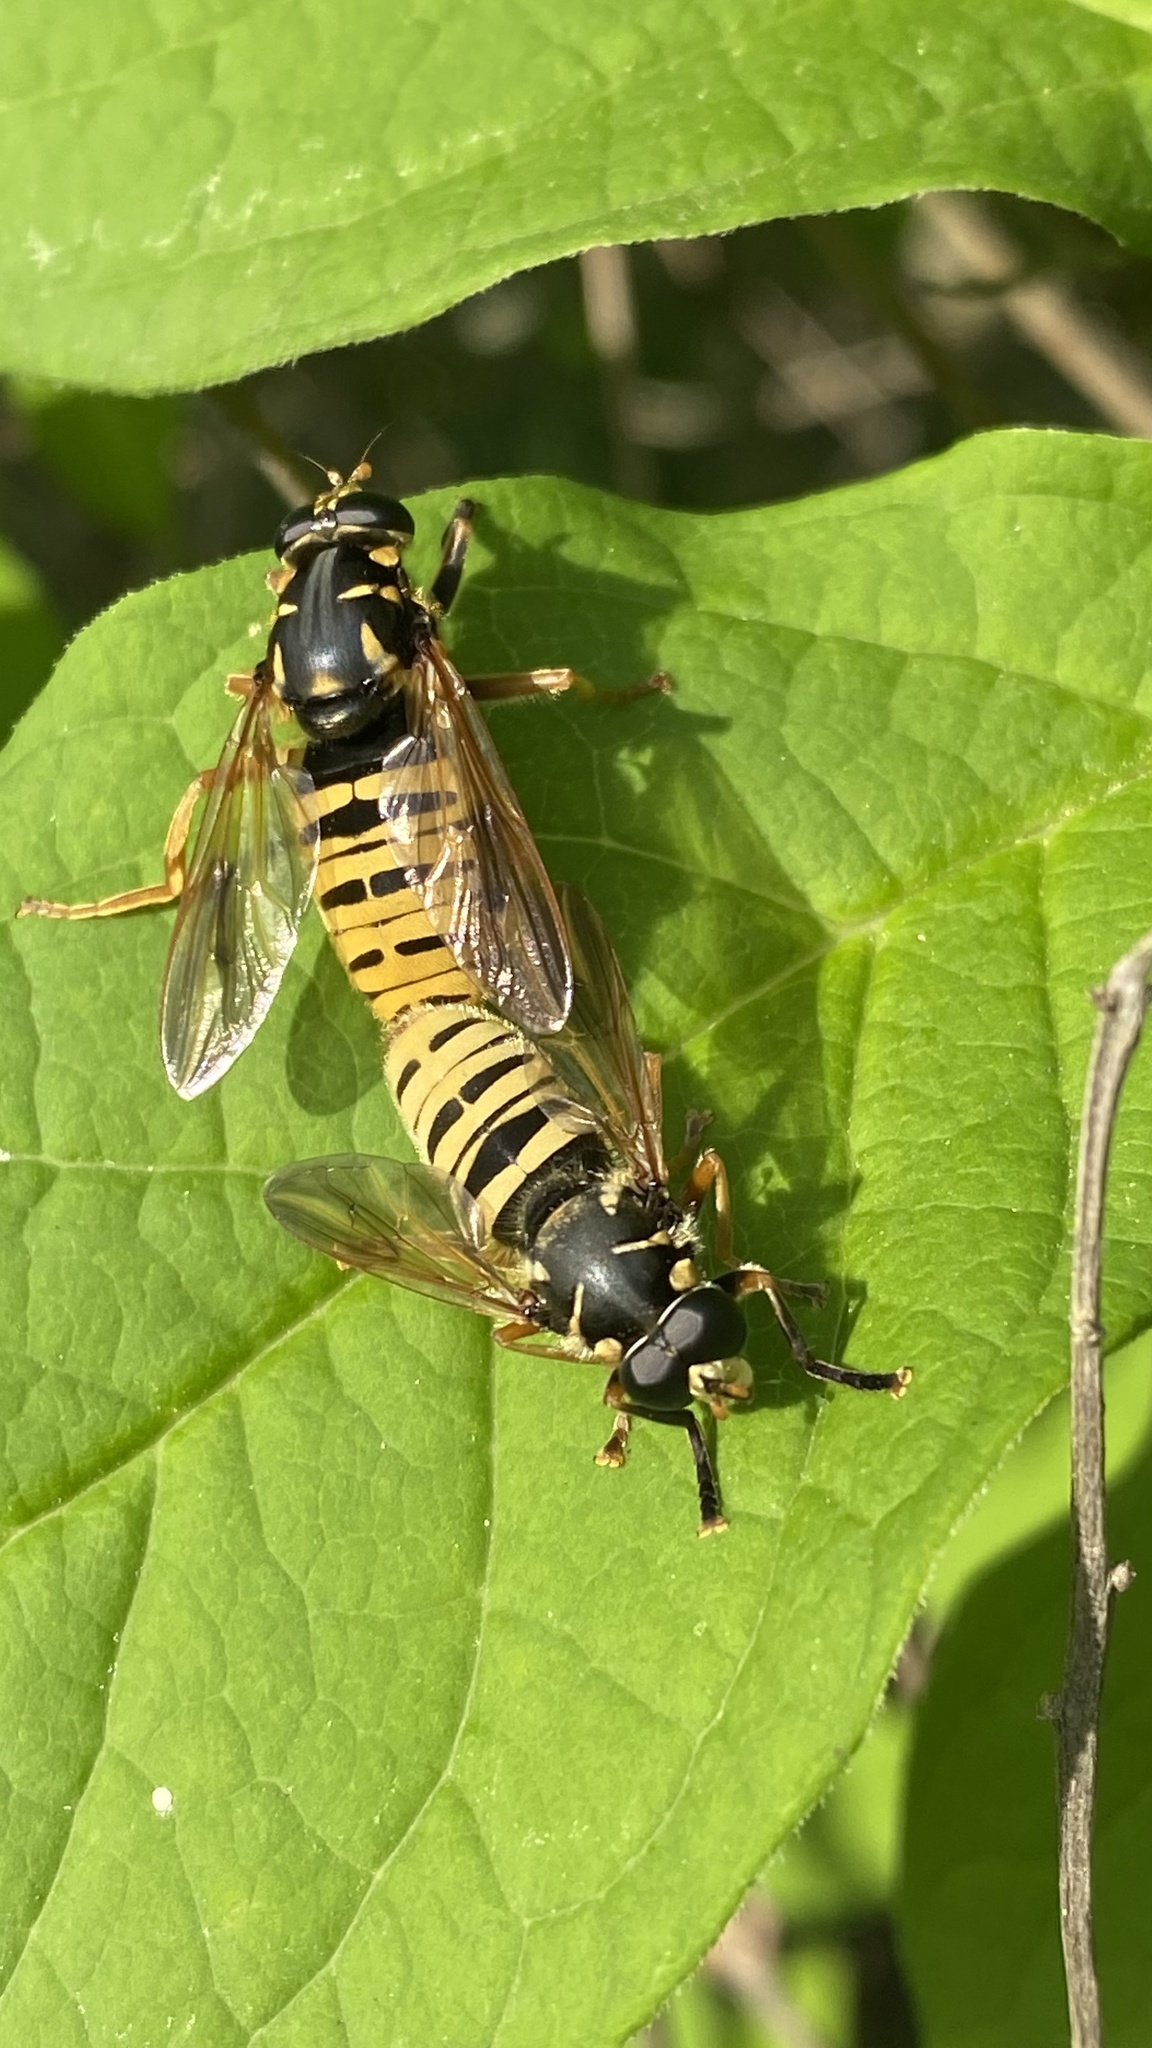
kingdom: Animalia
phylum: Arthropoda
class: Insecta
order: Diptera
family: Syrphidae
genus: Temnostoma
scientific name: Temnostoma vespiforme
